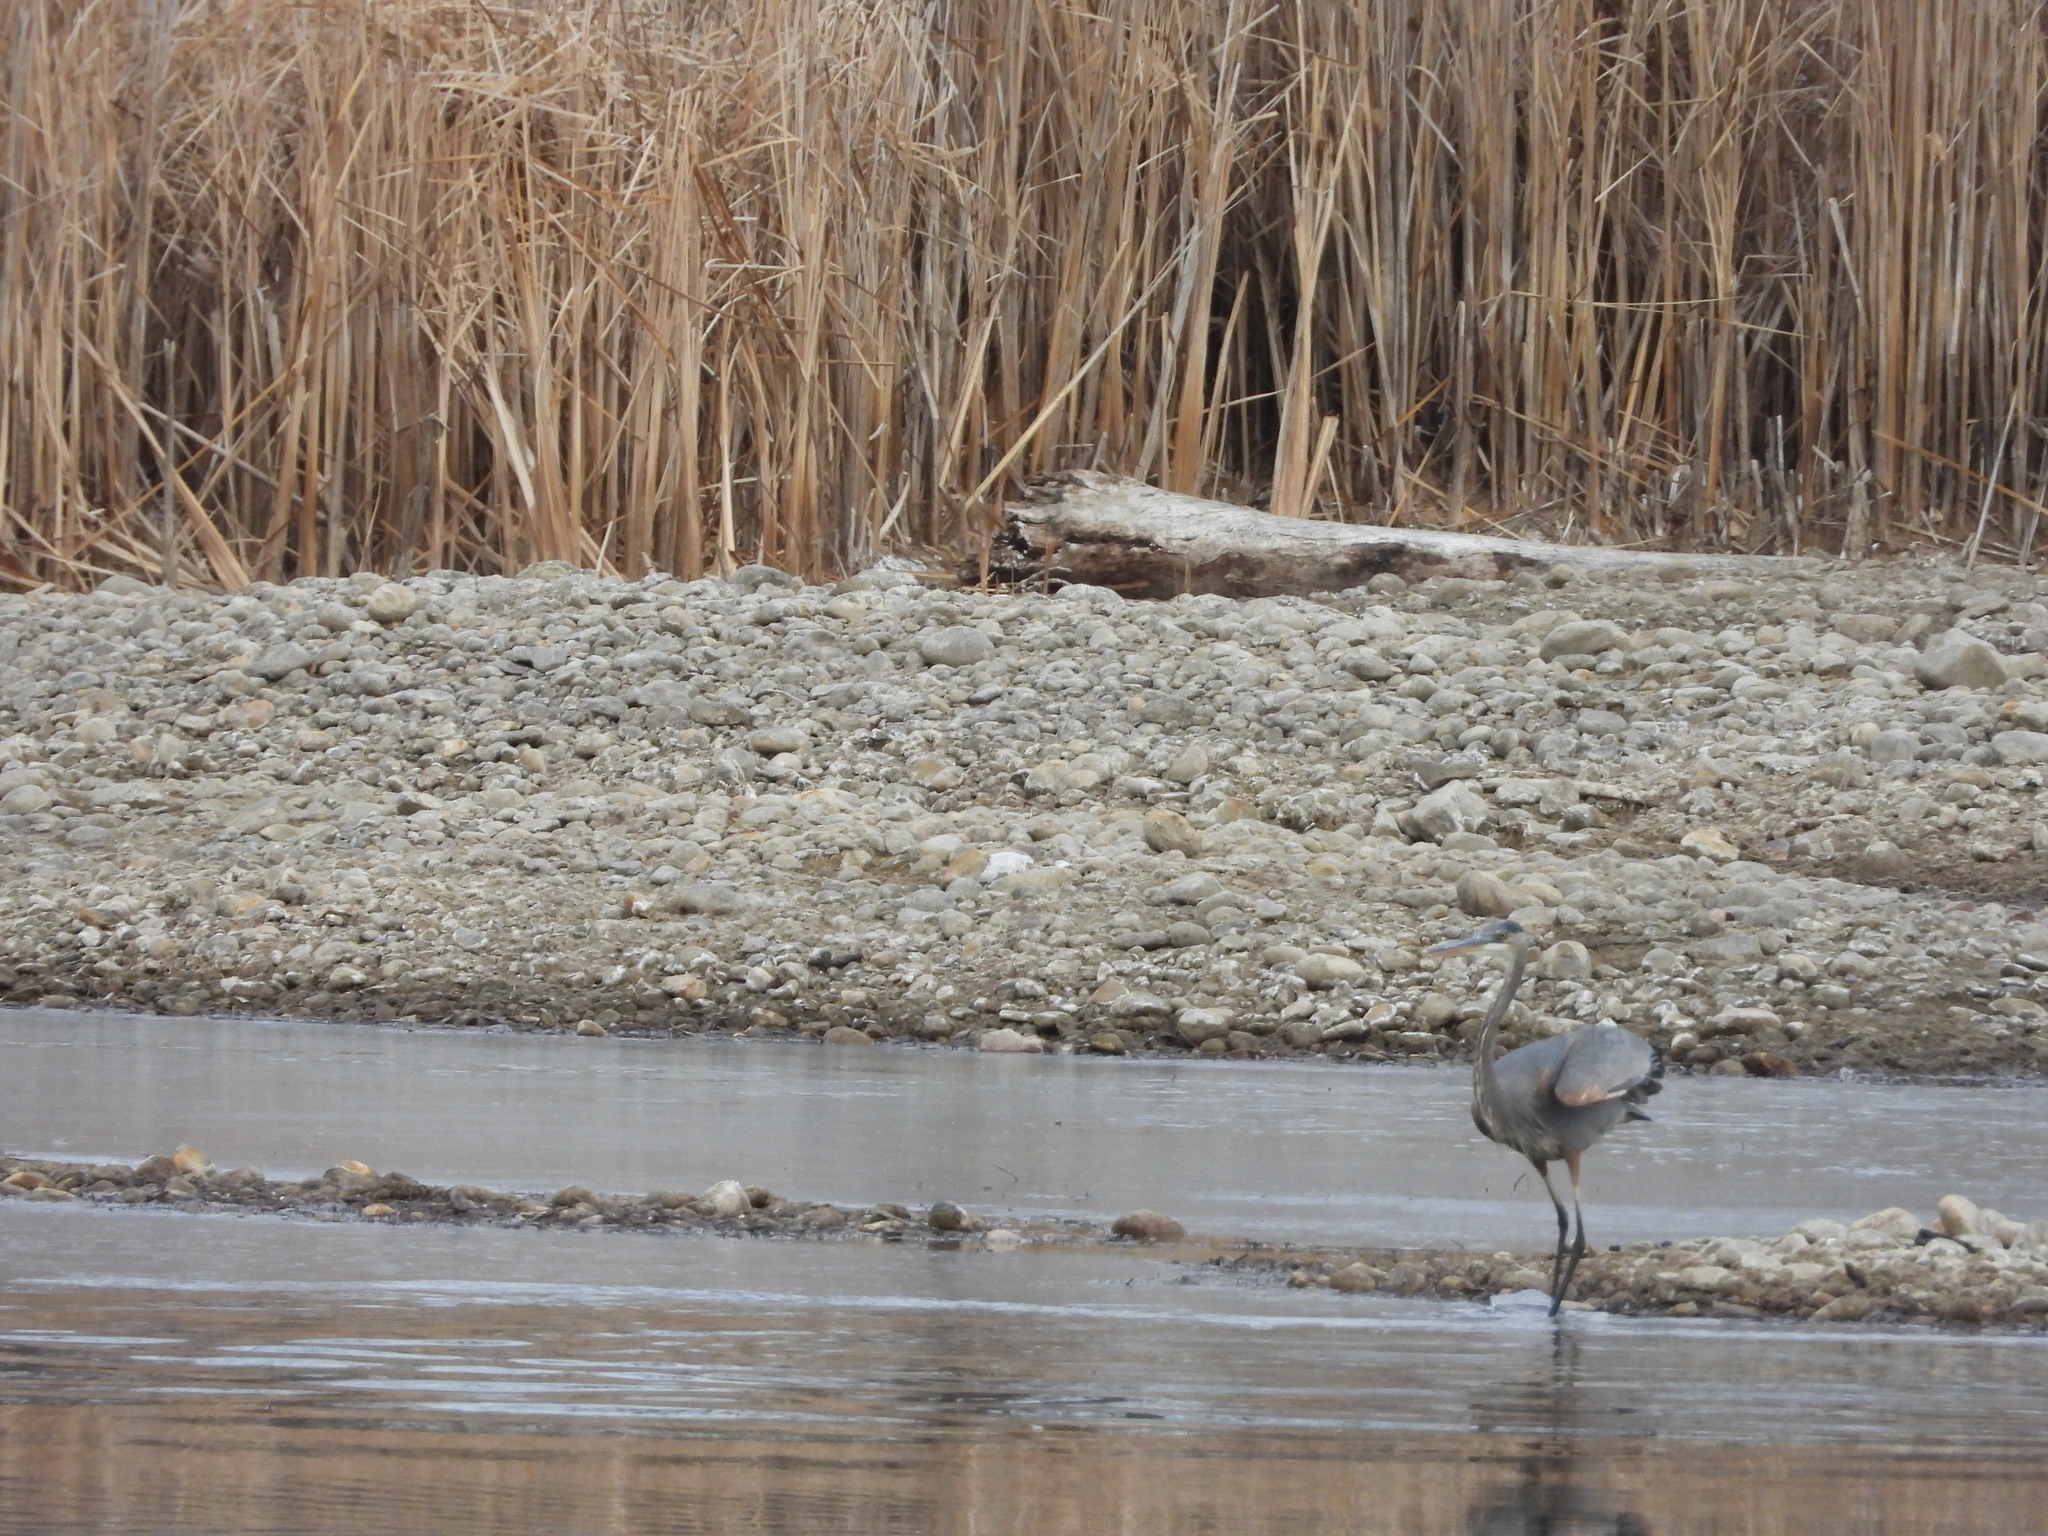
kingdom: Animalia
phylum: Chordata
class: Aves
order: Pelecaniformes
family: Ardeidae
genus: Ardea
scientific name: Ardea herodias
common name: Great blue heron
